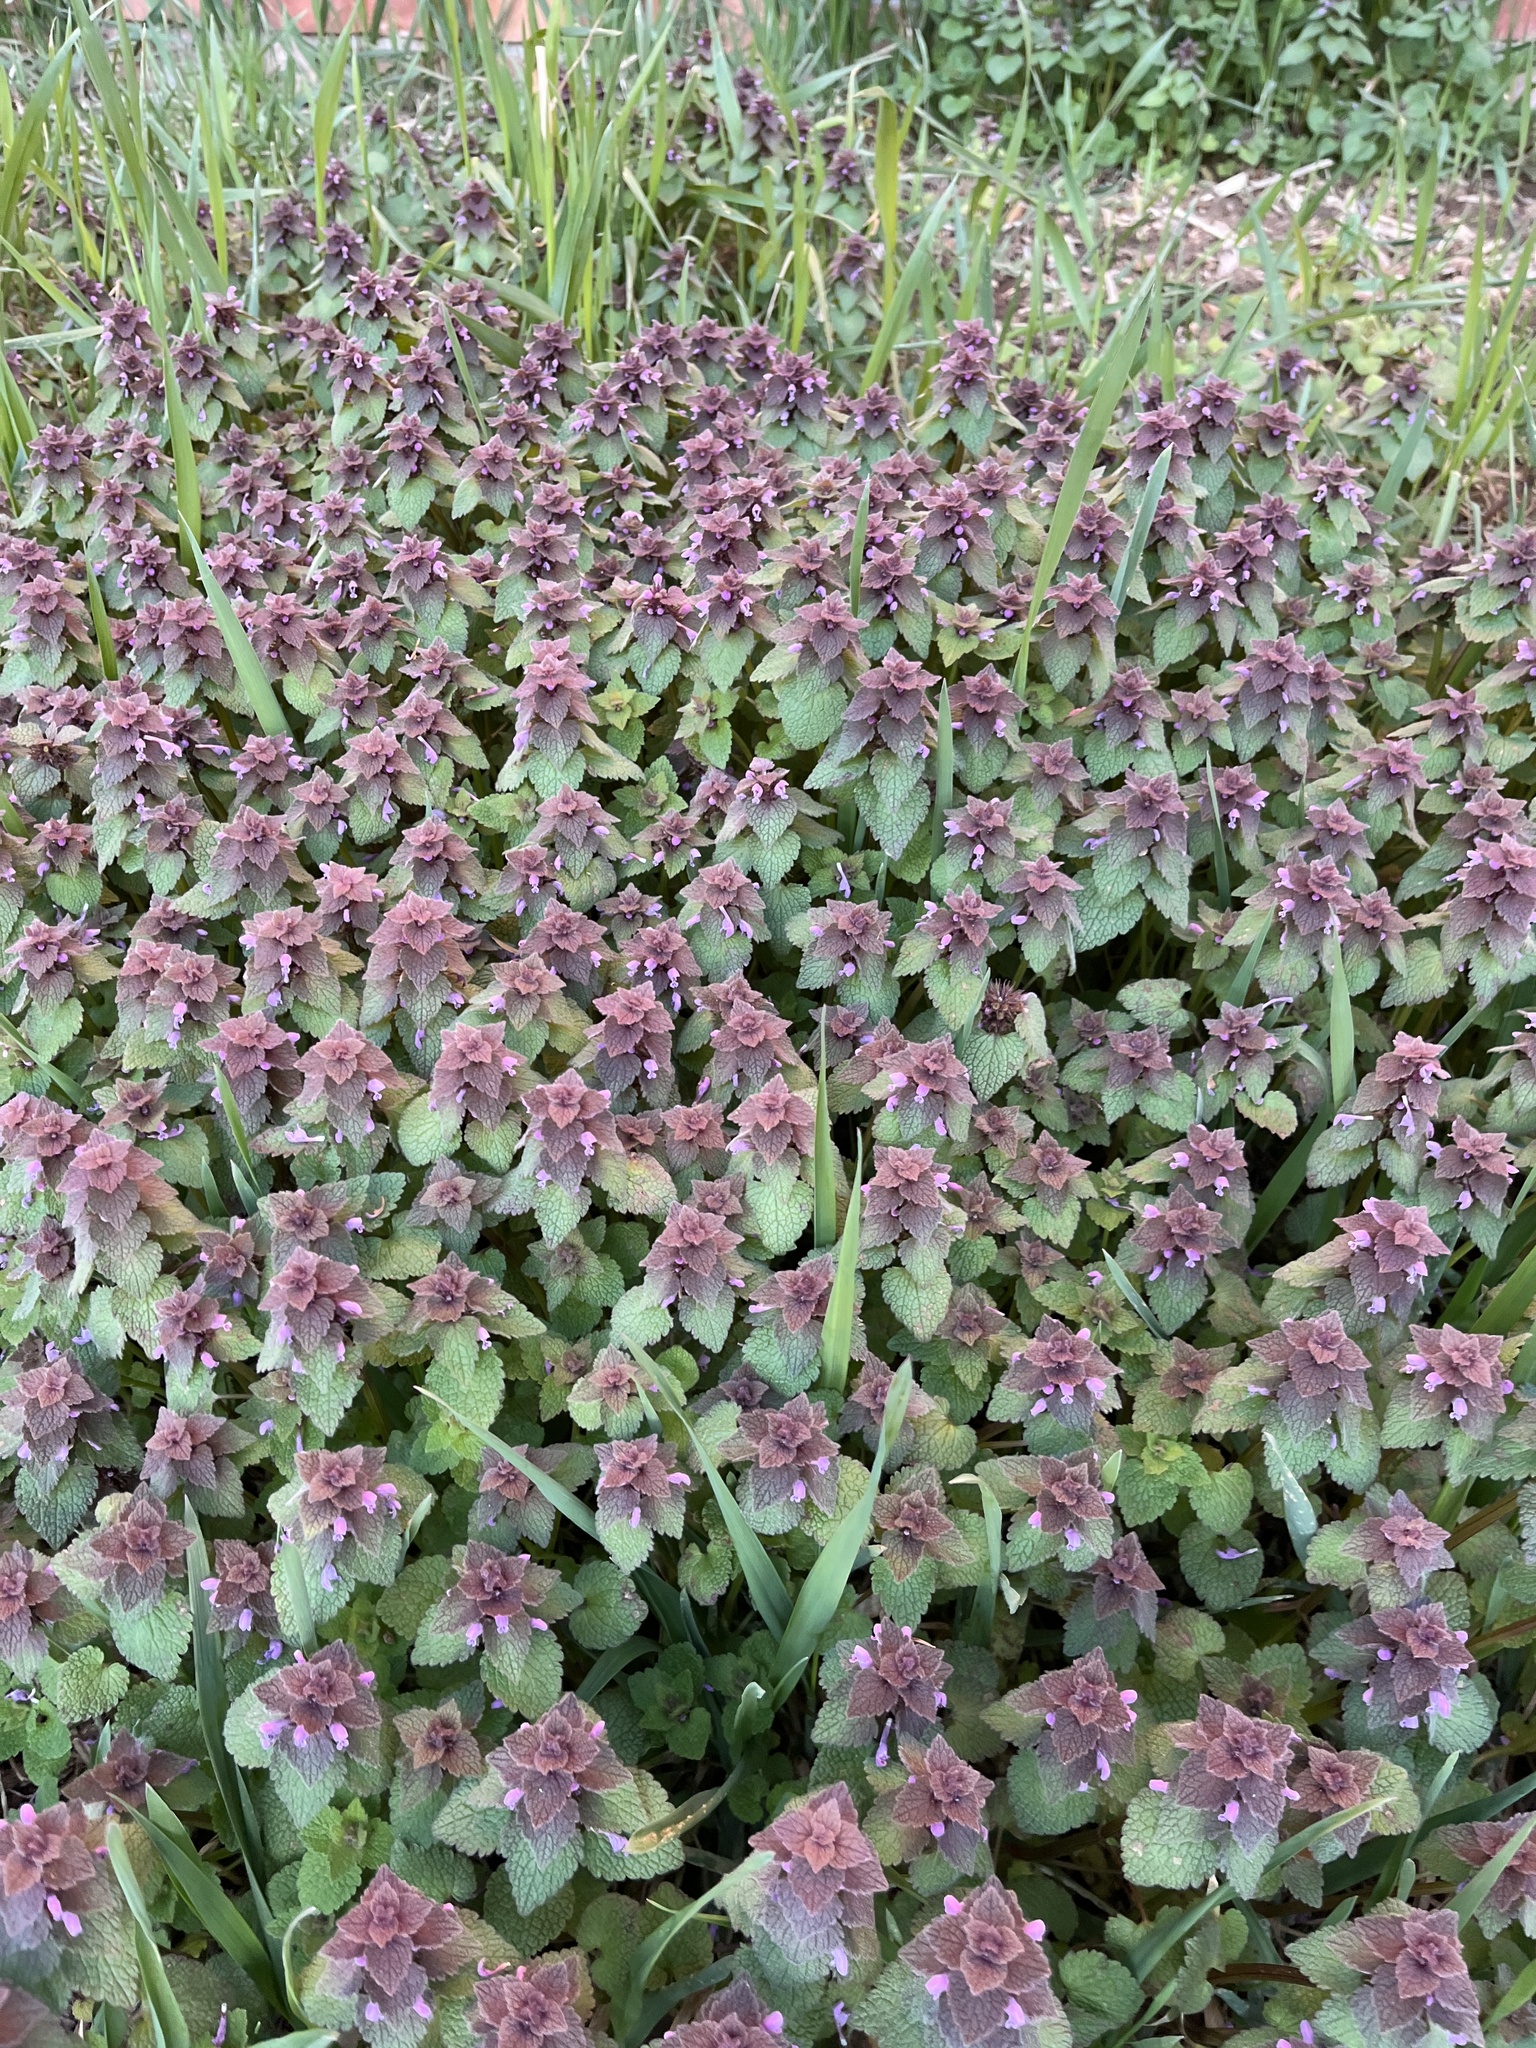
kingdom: Plantae
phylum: Tracheophyta
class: Magnoliopsida
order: Lamiales
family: Lamiaceae
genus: Lamium
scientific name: Lamium purpureum
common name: Red dead-nettle
